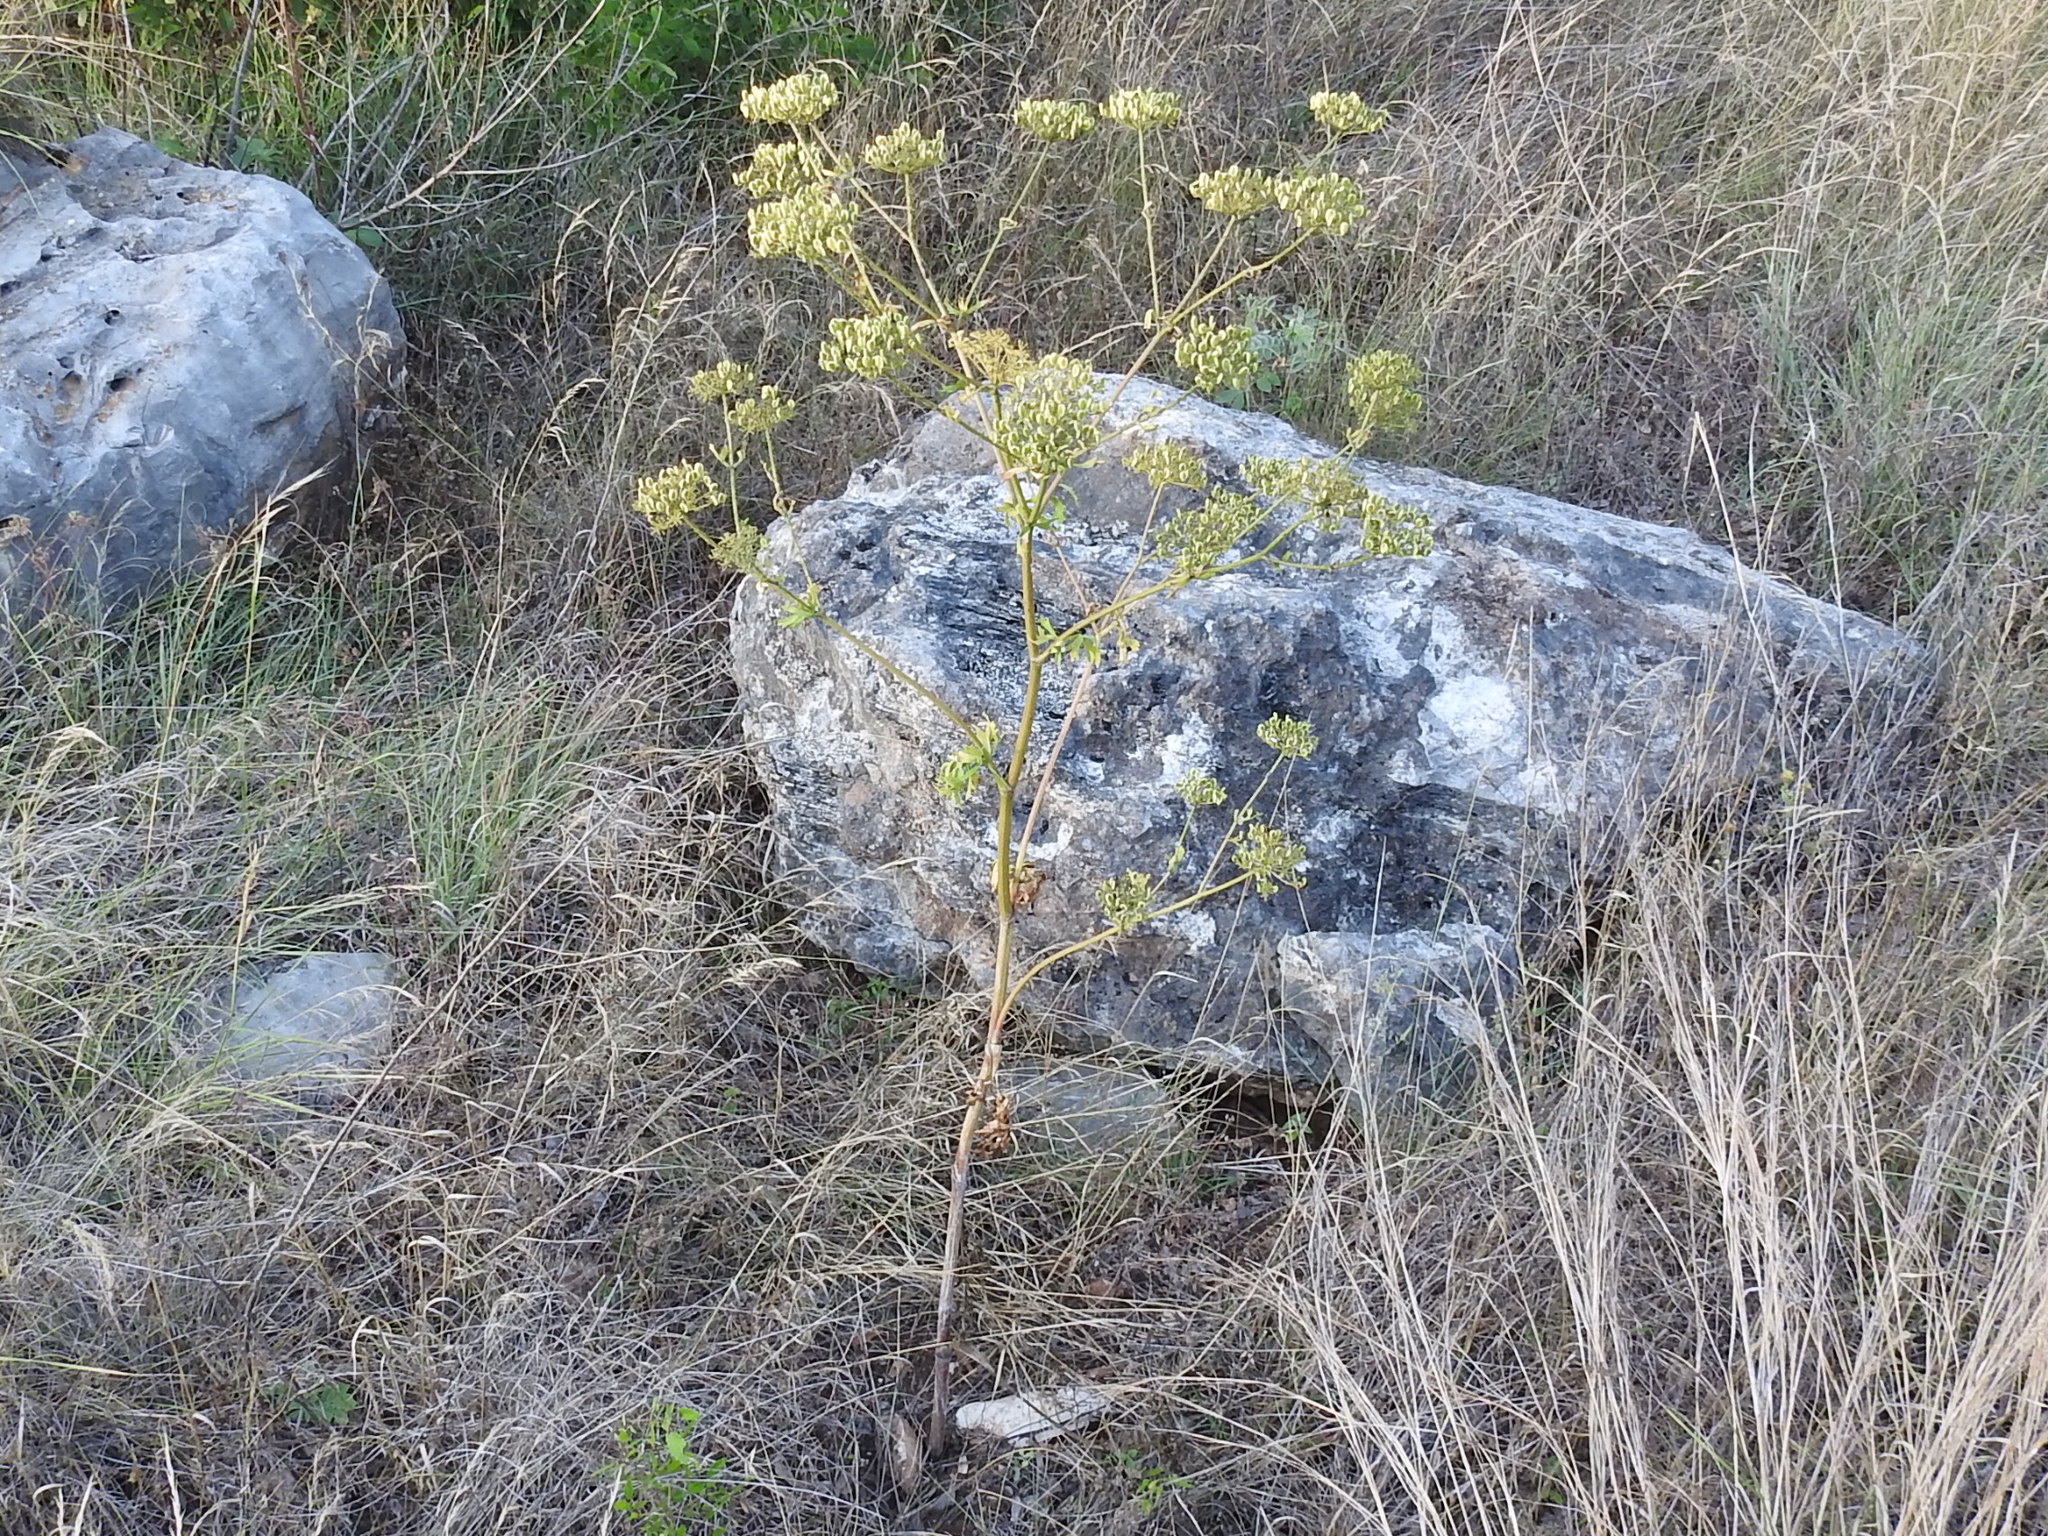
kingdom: Plantae
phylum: Tracheophyta
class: Magnoliopsida
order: Apiales
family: Apiaceae
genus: Polytaenia
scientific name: Polytaenia texana
